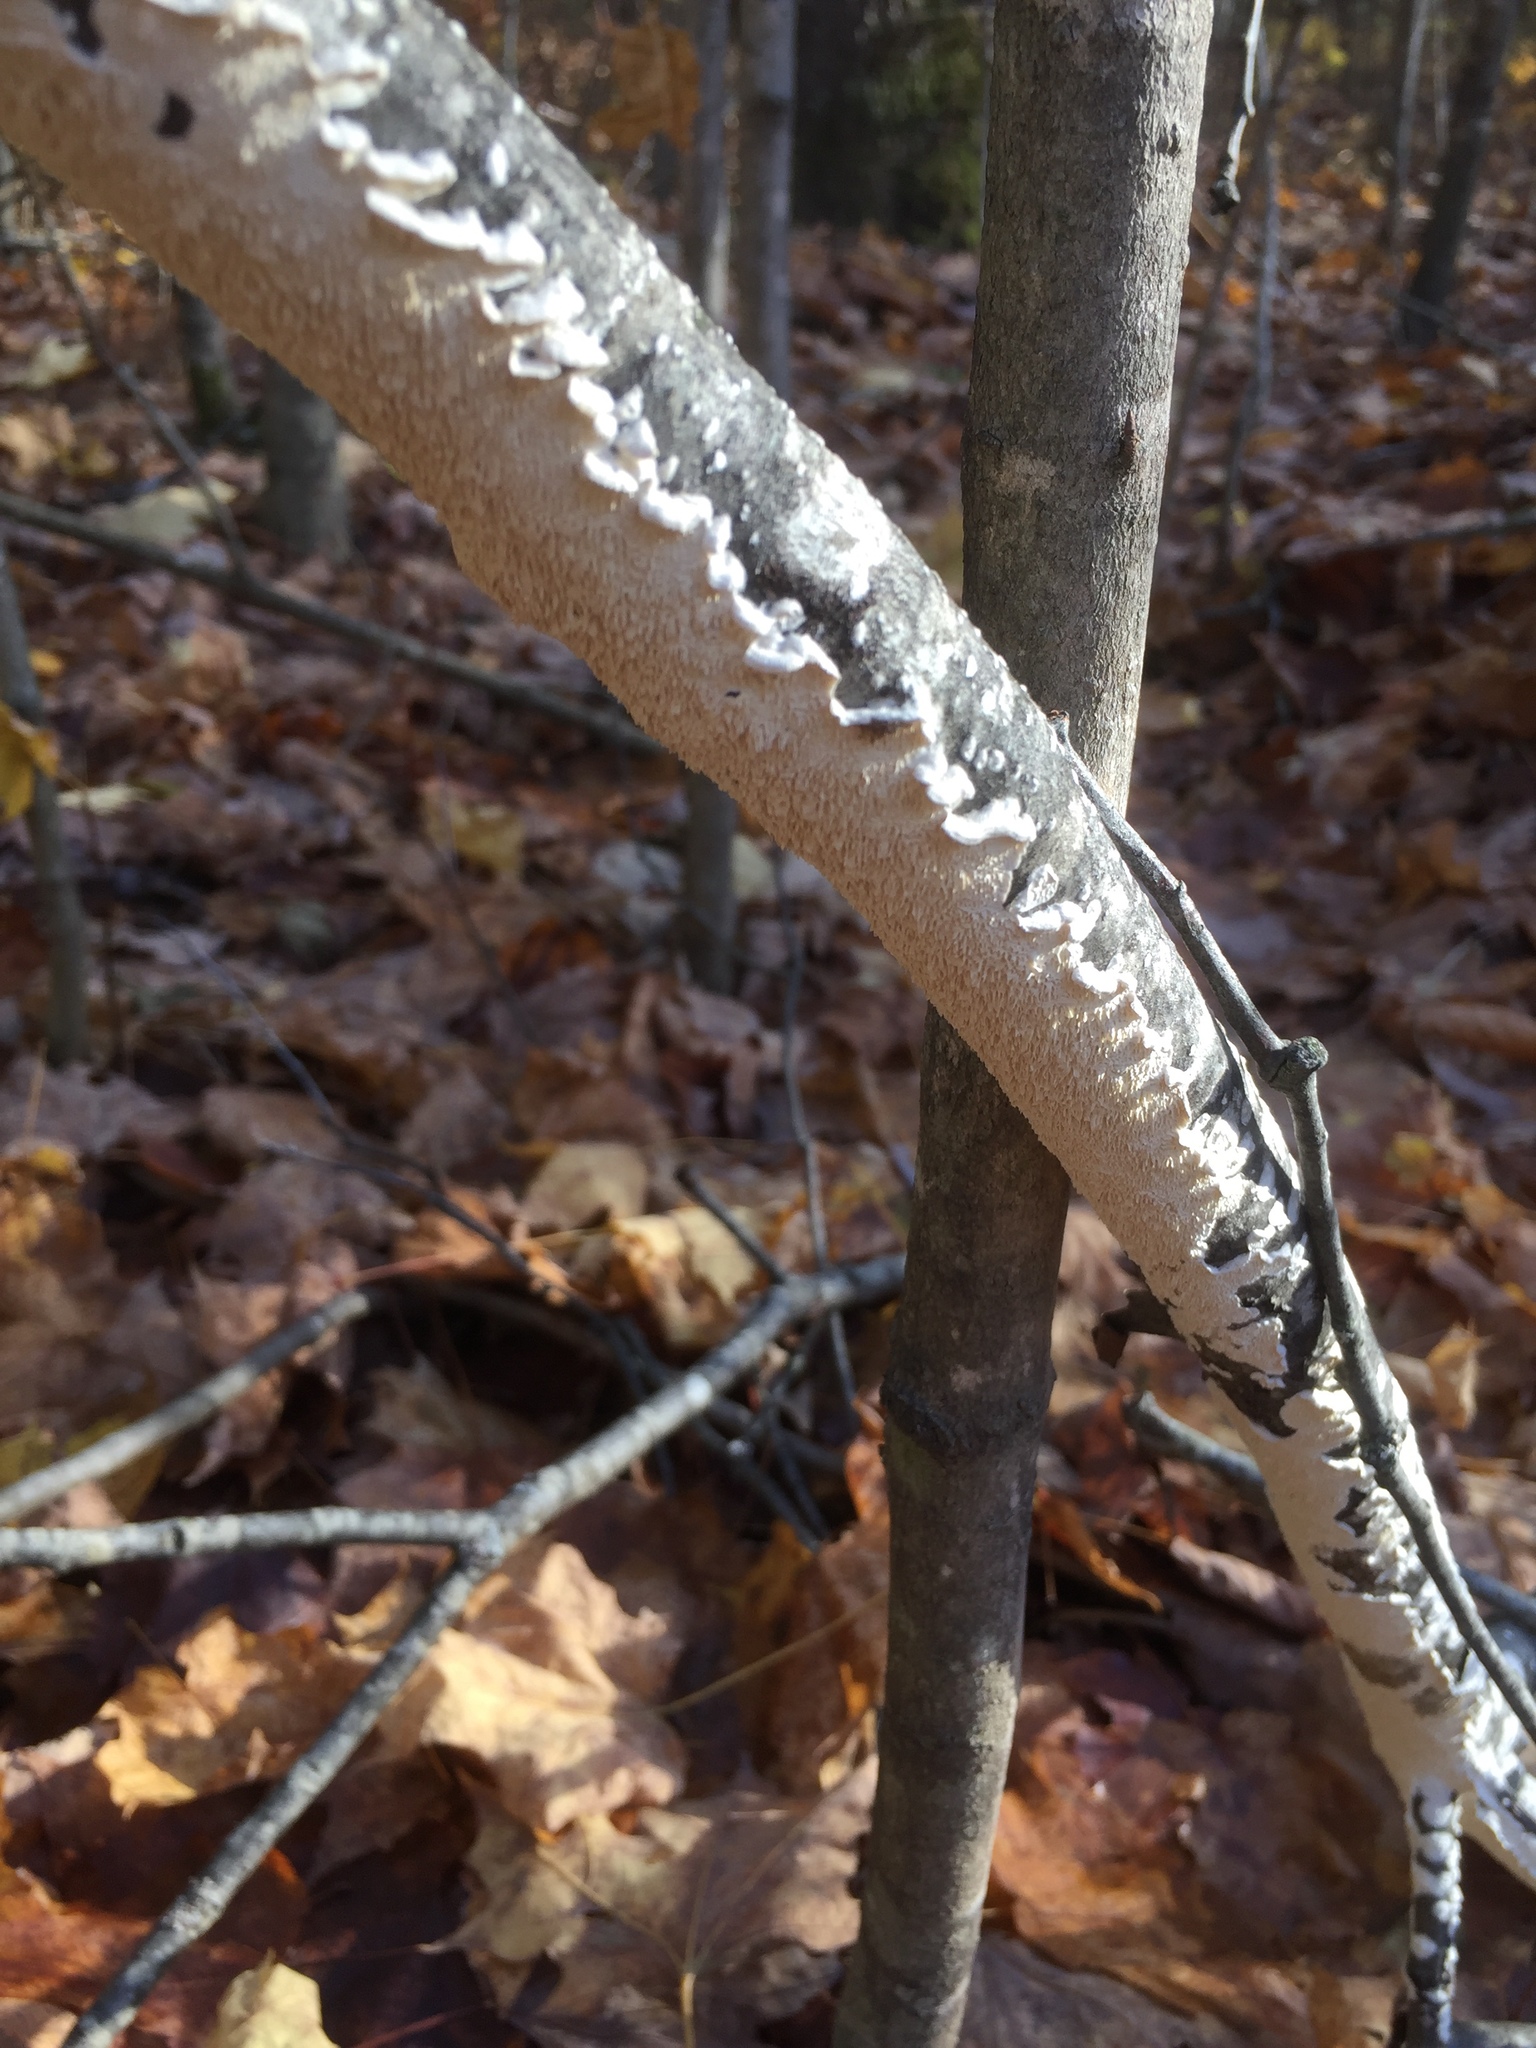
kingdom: Fungi
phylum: Basidiomycota
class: Agaricomycetes
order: Polyporales
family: Irpicaceae
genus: Irpex
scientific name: Irpex lacteus
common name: Milk-white toothed polypore
